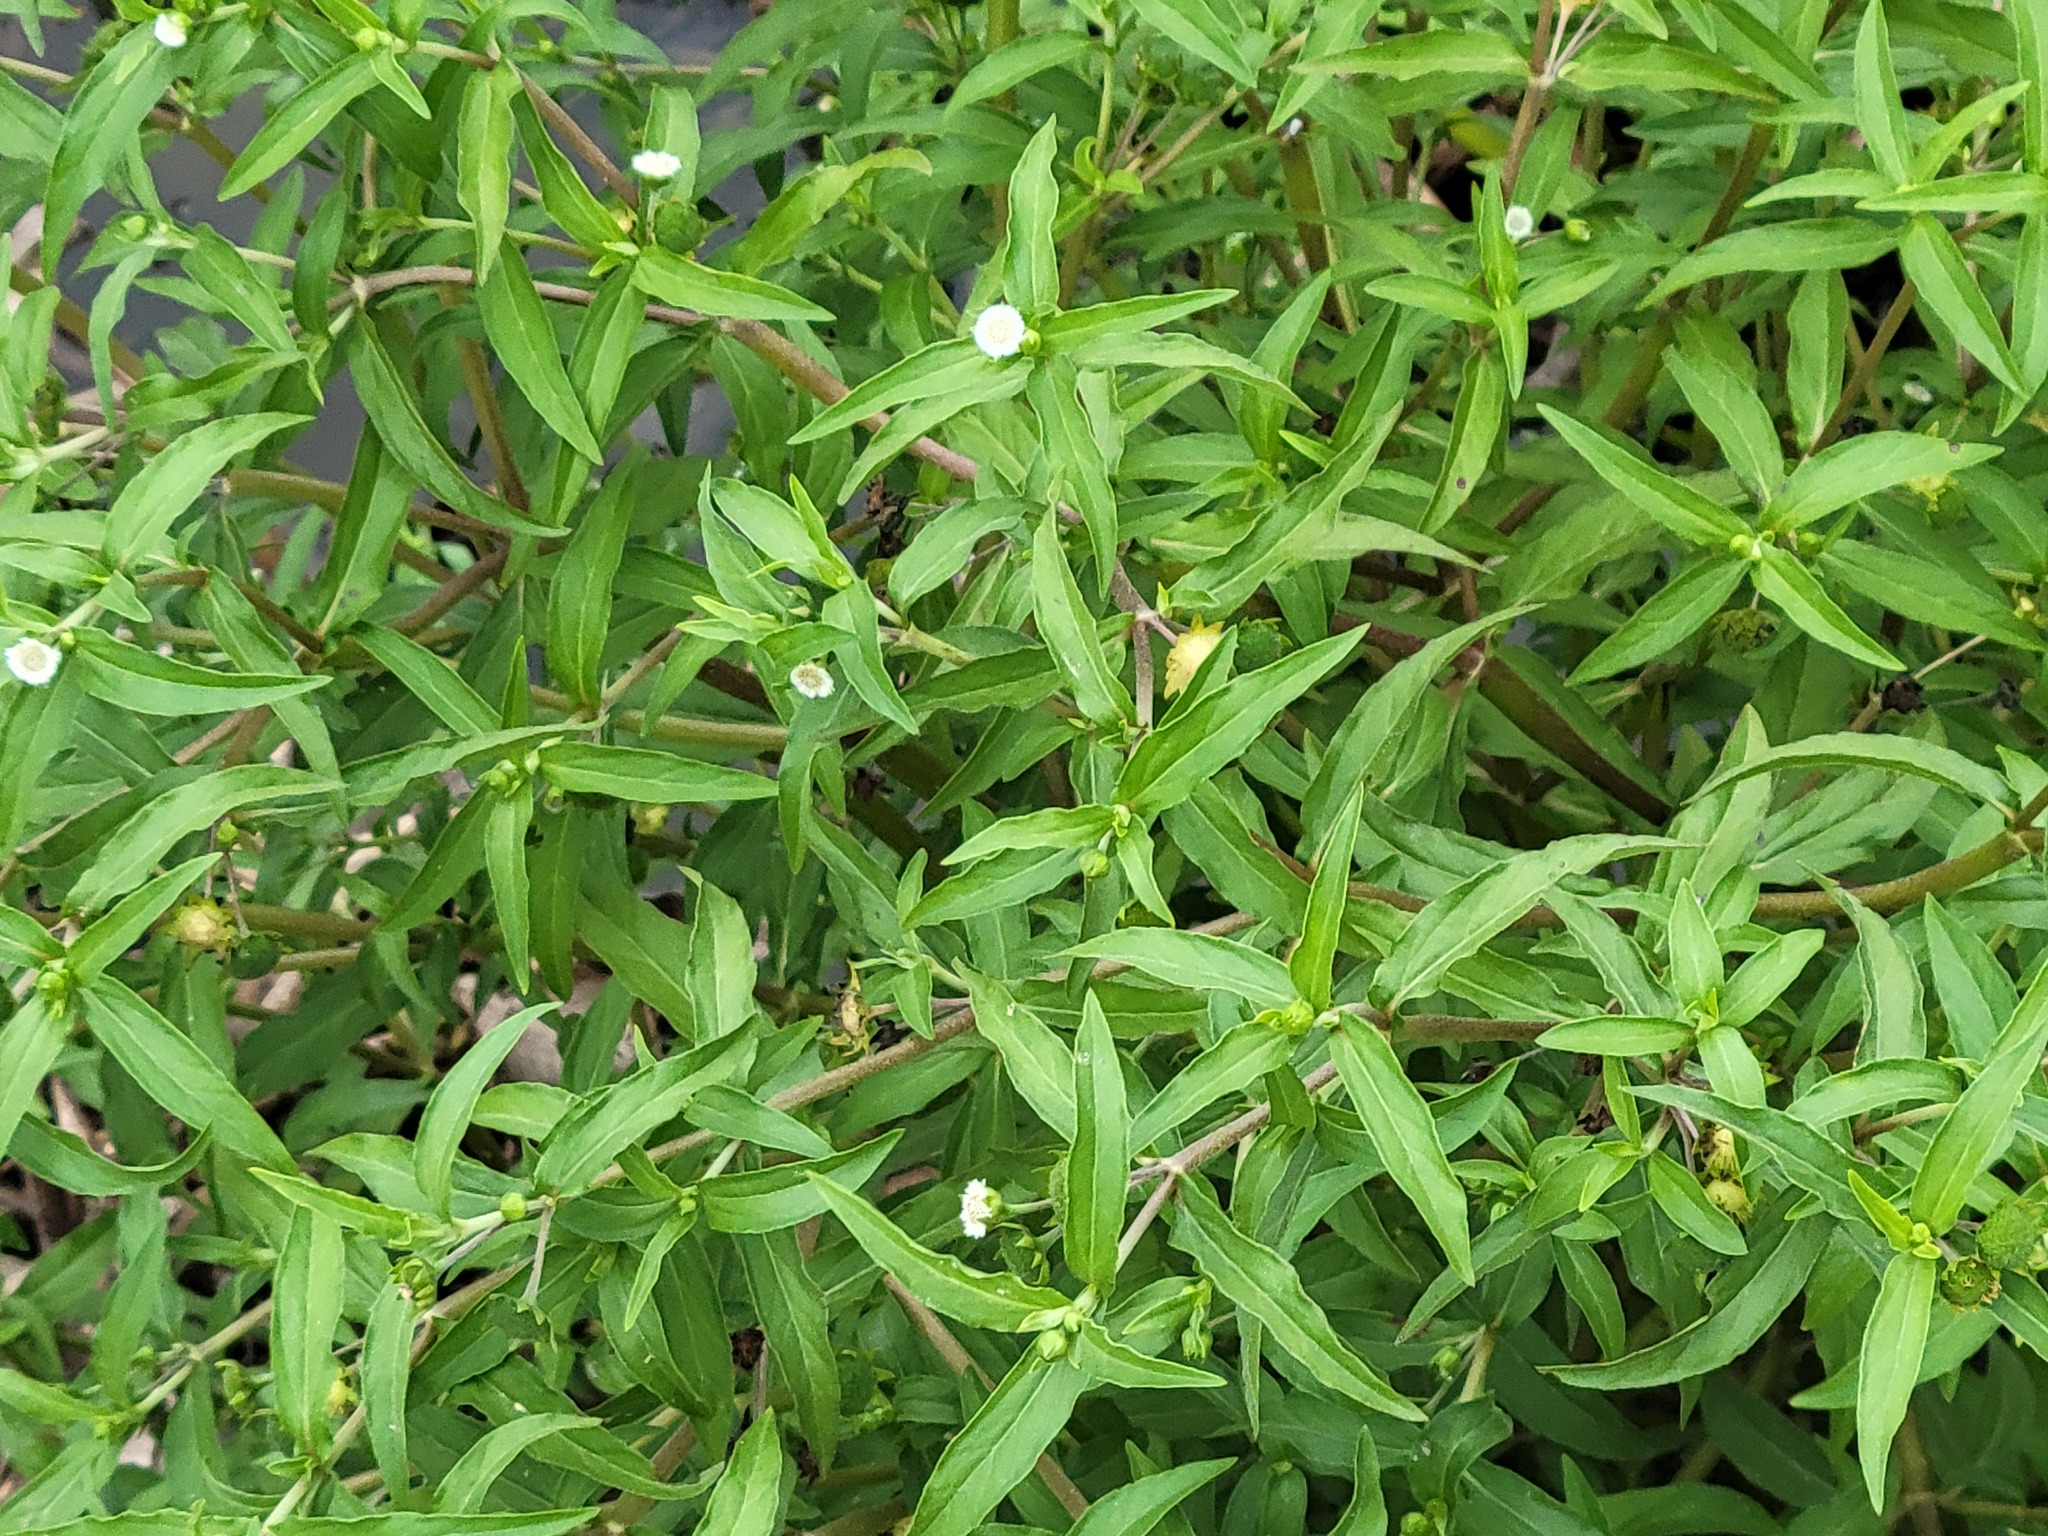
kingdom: Animalia
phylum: Arthropoda
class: Insecta
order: Lepidoptera
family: Geometridae
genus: Iridopsis
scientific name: Iridopsis defectaria
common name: Brown-shaded gray
